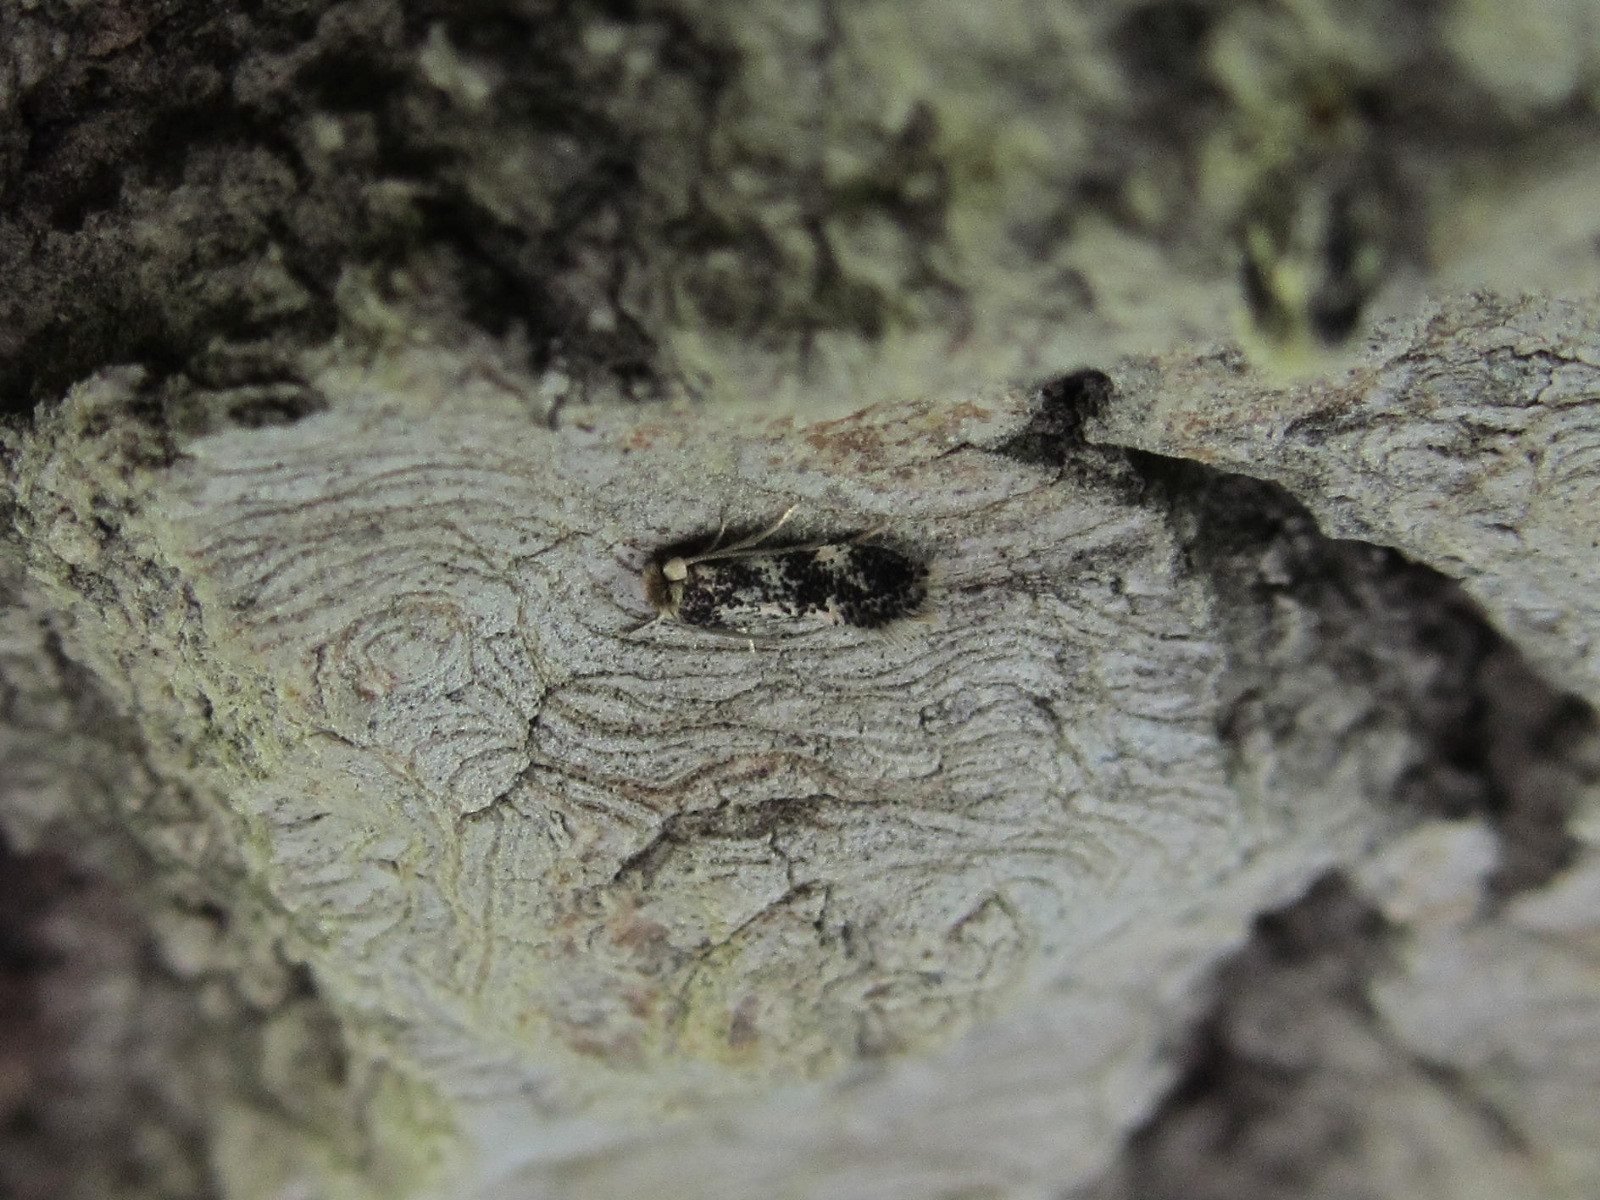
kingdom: Animalia
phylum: Arthropoda
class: Insecta
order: Lepidoptera
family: Nepticulidae
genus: Ectoedemia
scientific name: Ectoedemia turbidella
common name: Grey-poplar pigmy
